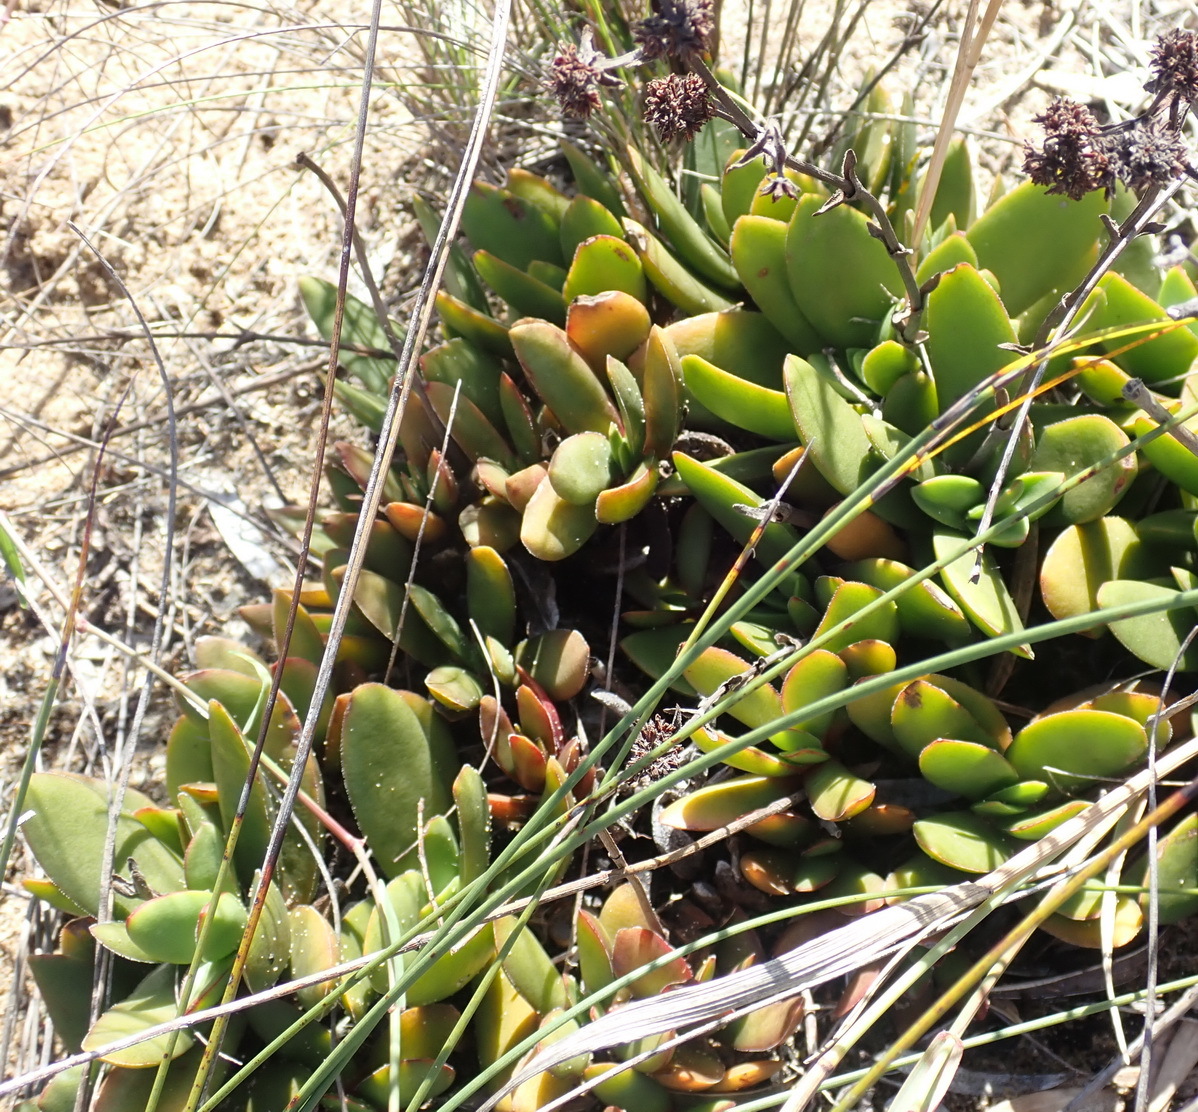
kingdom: Plantae
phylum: Tracheophyta
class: Magnoliopsida
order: Saxifragales
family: Crassulaceae
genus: Crassula
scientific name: Crassula atropurpurea
